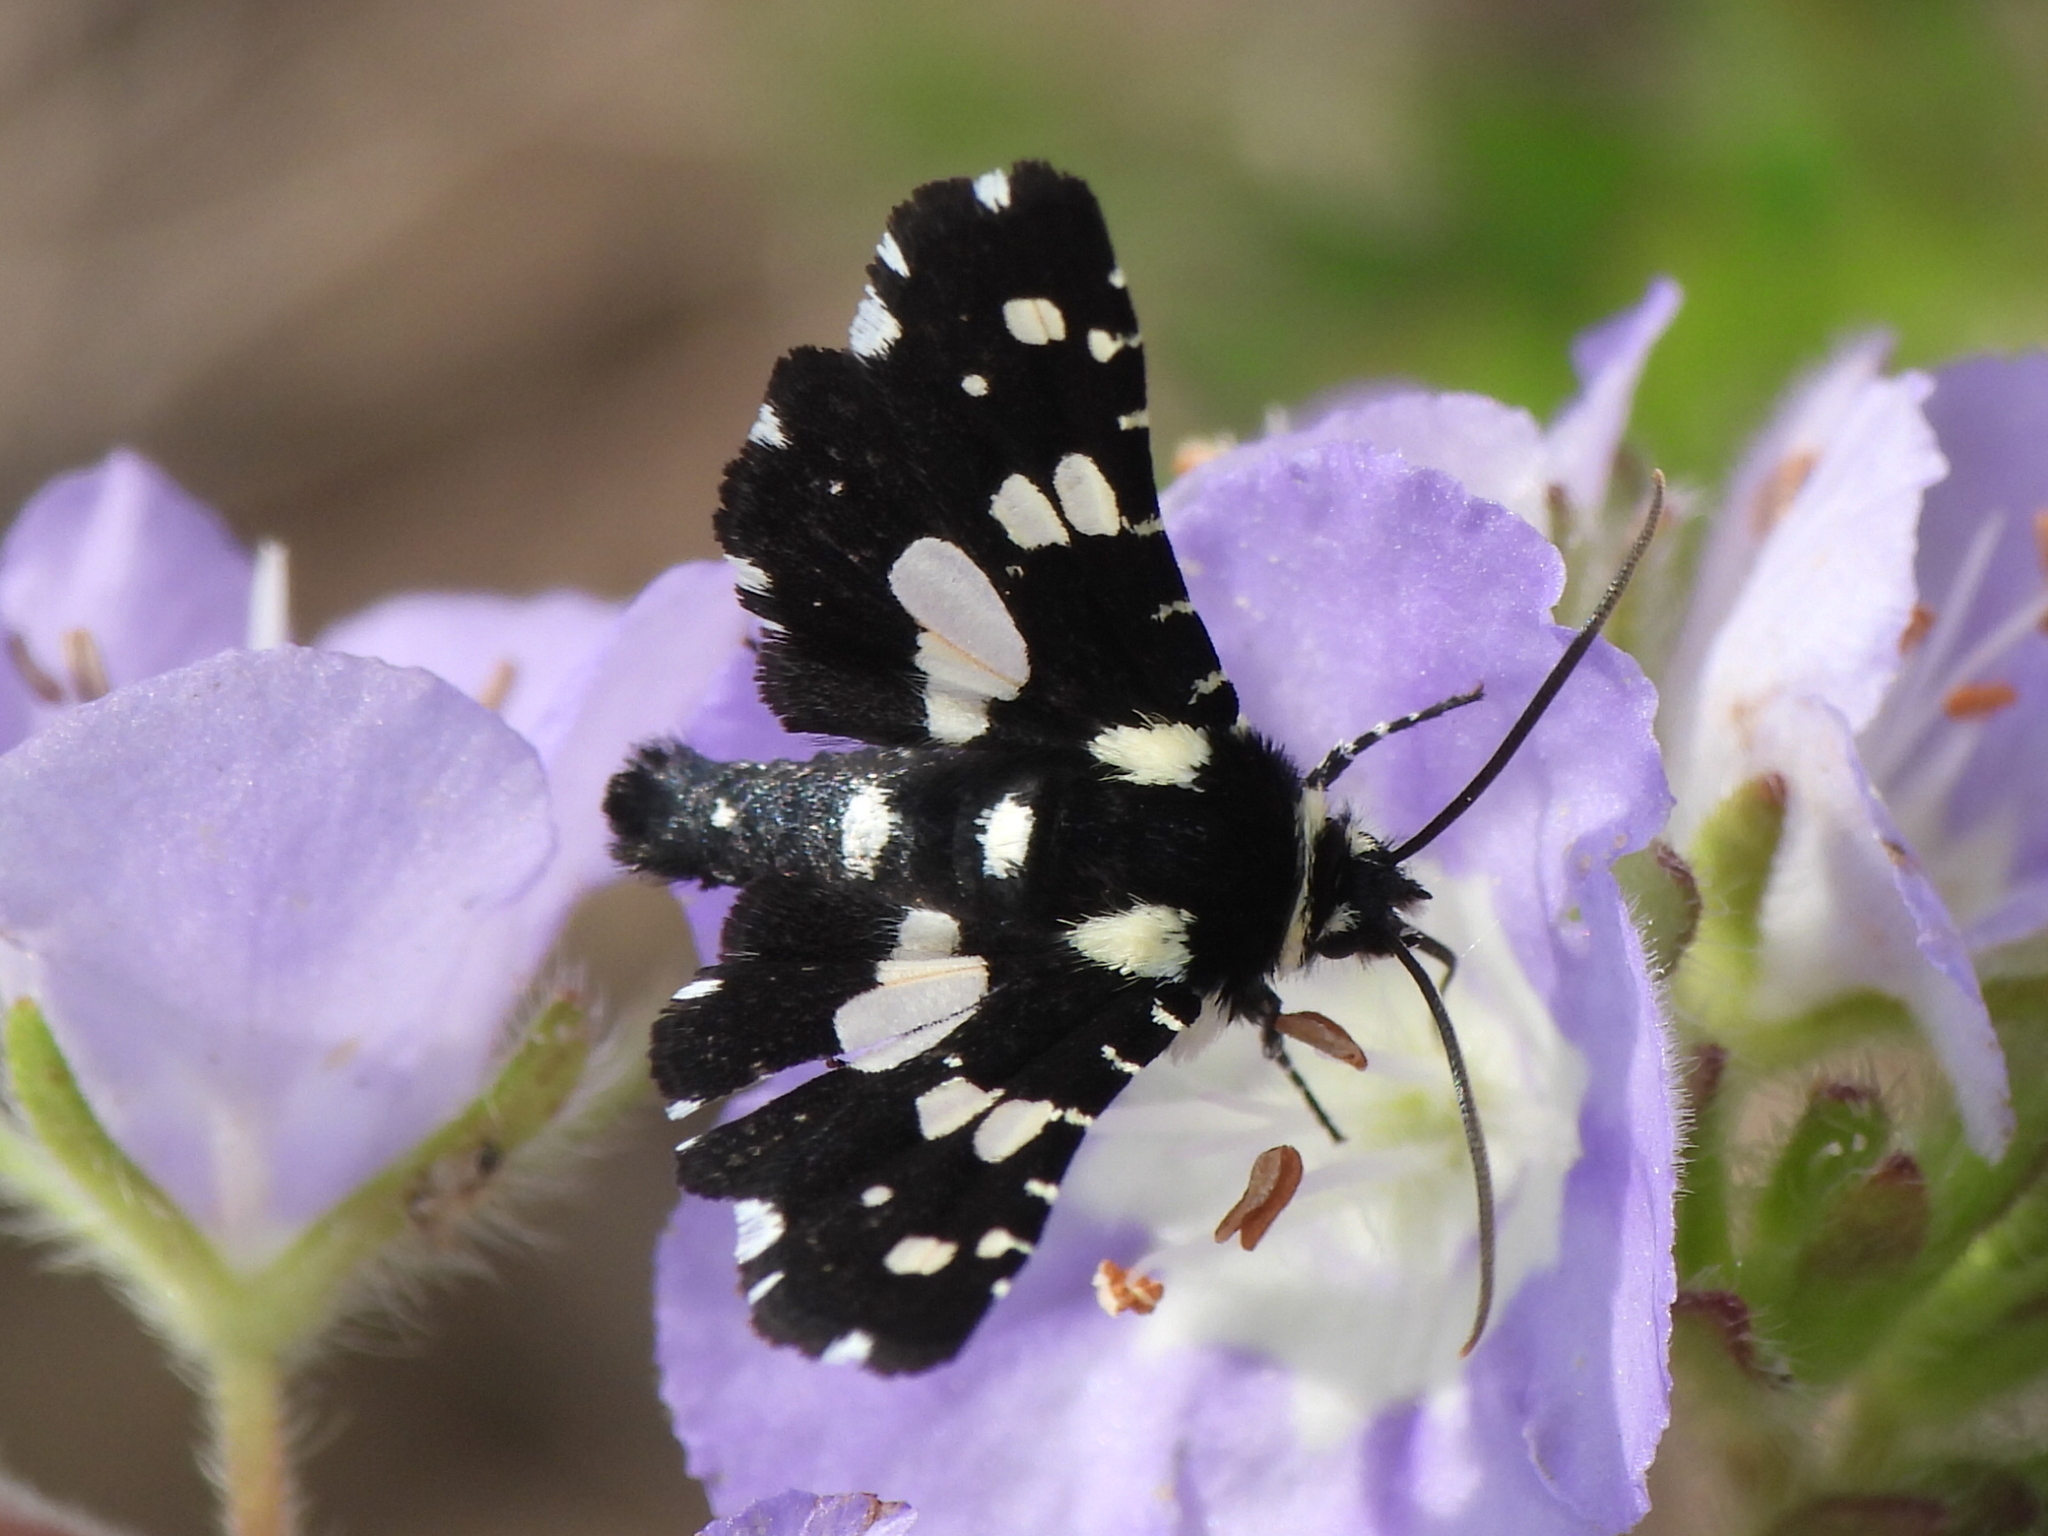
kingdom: Animalia
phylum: Arthropoda
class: Insecta
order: Lepidoptera
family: Thyrididae
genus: Pseudothyris
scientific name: Pseudothyris sepulchralis
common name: Mournful thyris moth
